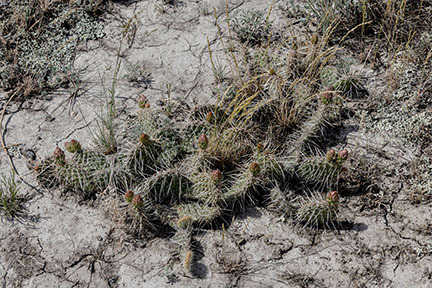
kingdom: Plantae
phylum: Tracheophyta
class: Magnoliopsida
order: Caryophyllales
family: Cactaceae
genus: Opuntia
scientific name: Opuntia polyacantha
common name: Plains prickly-pear
